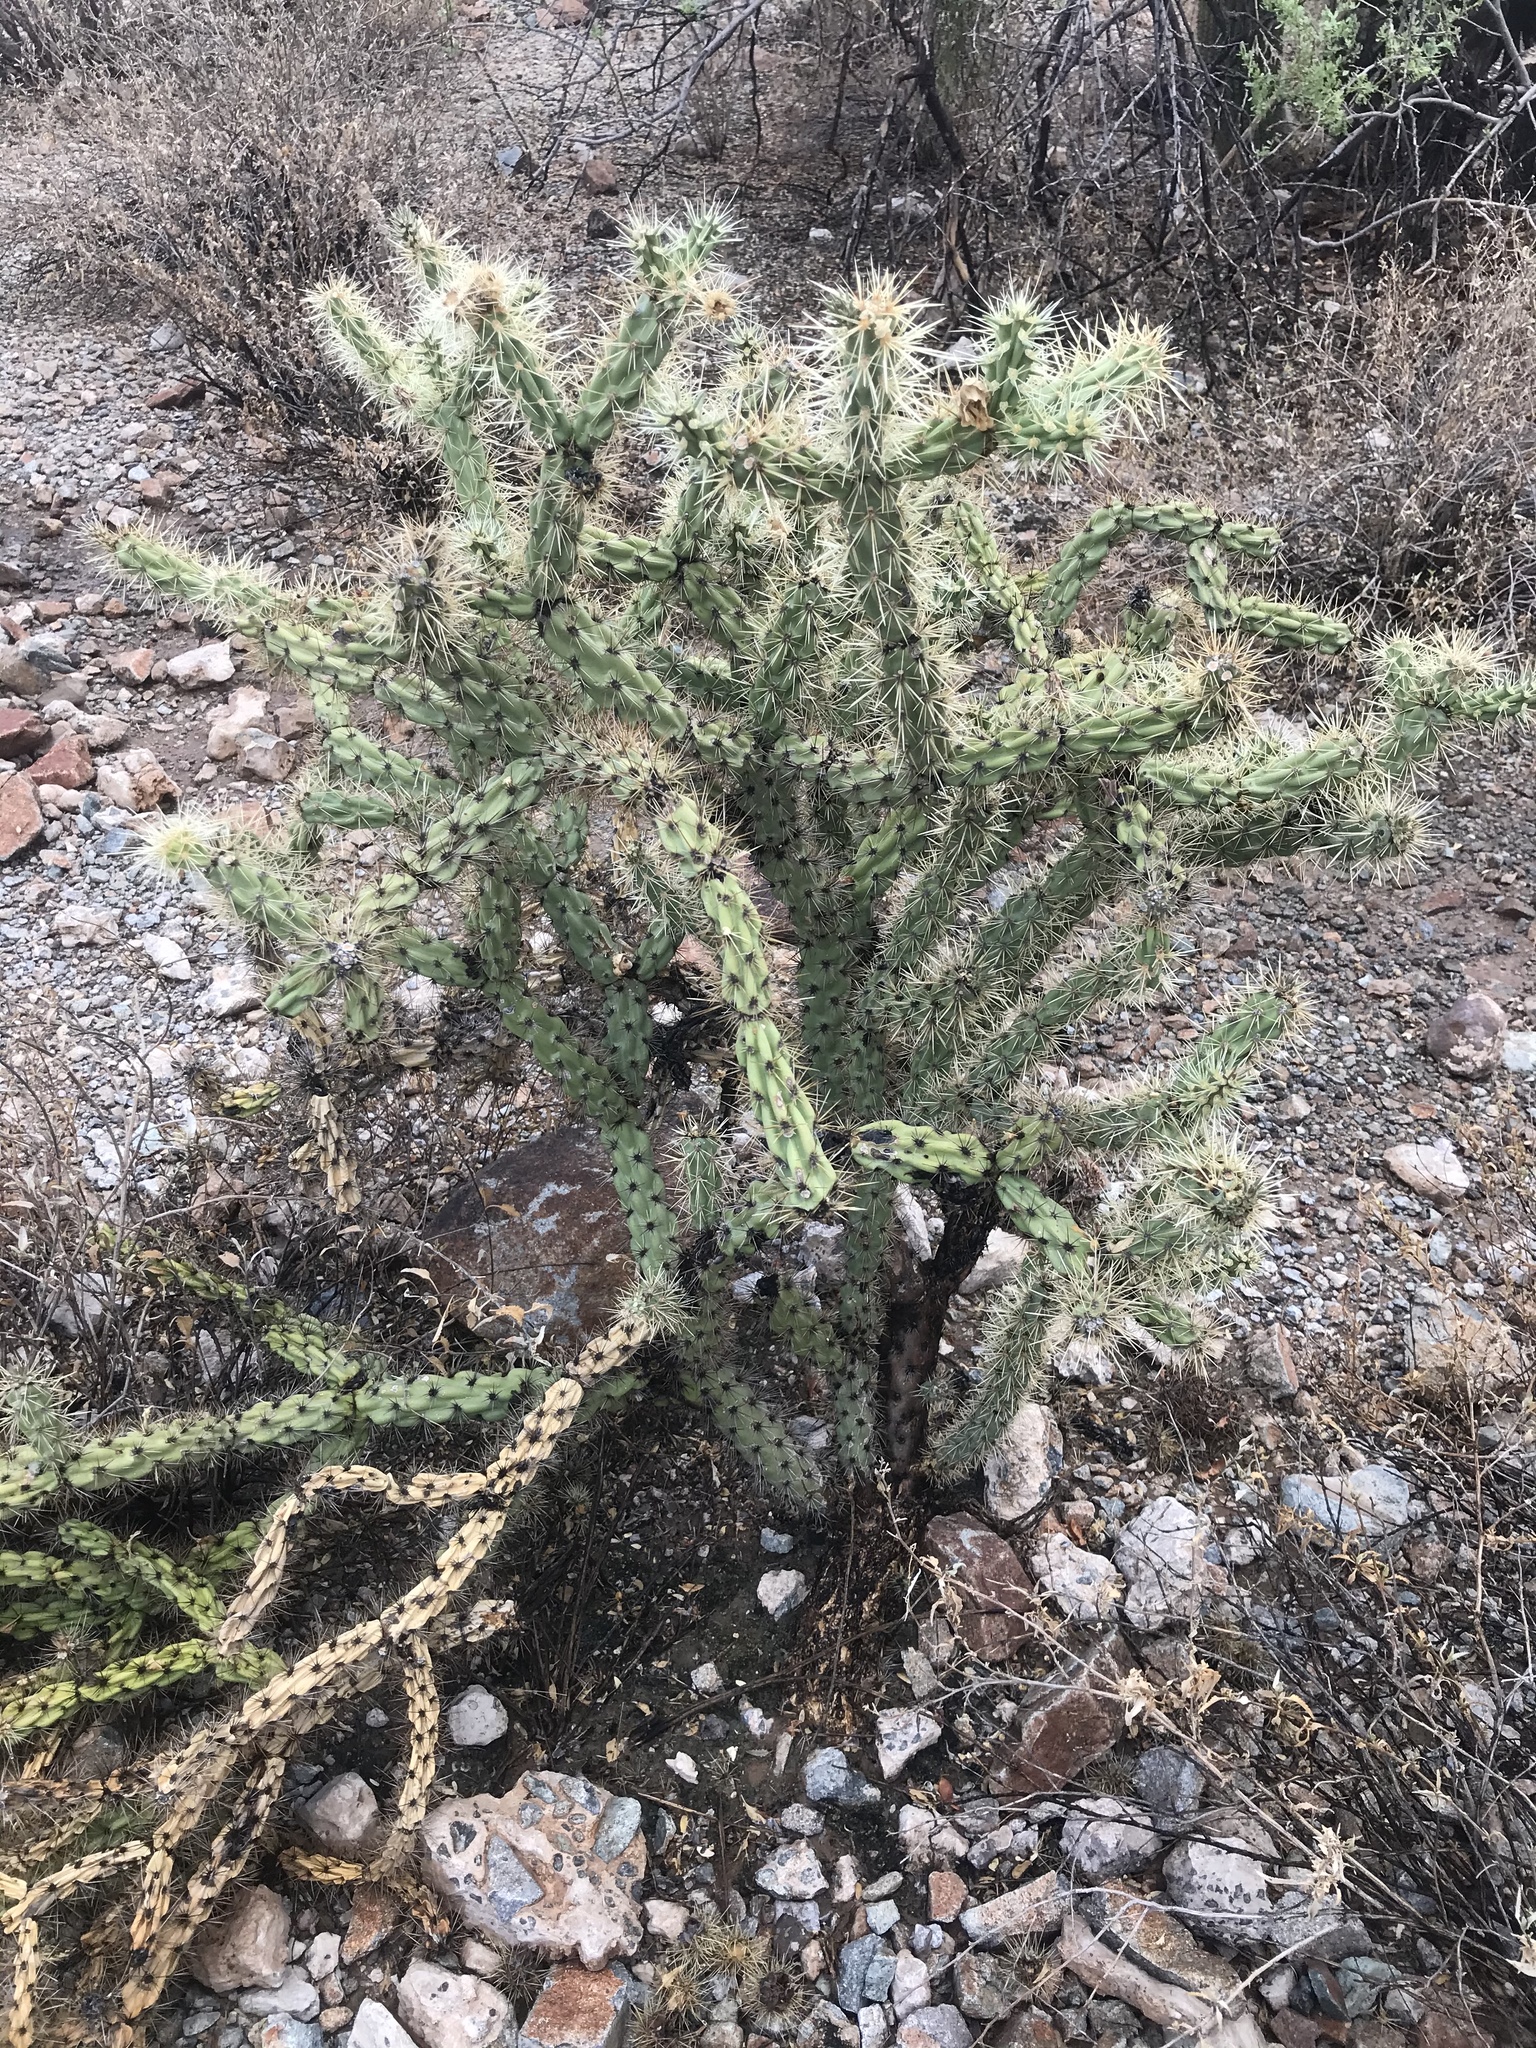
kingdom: Plantae
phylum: Tracheophyta
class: Magnoliopsida
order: Caryophyllales
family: Cactaceae
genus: Cylindropuntia
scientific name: Cylindropuntia acanthocarpa
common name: Buckhorn cholla
